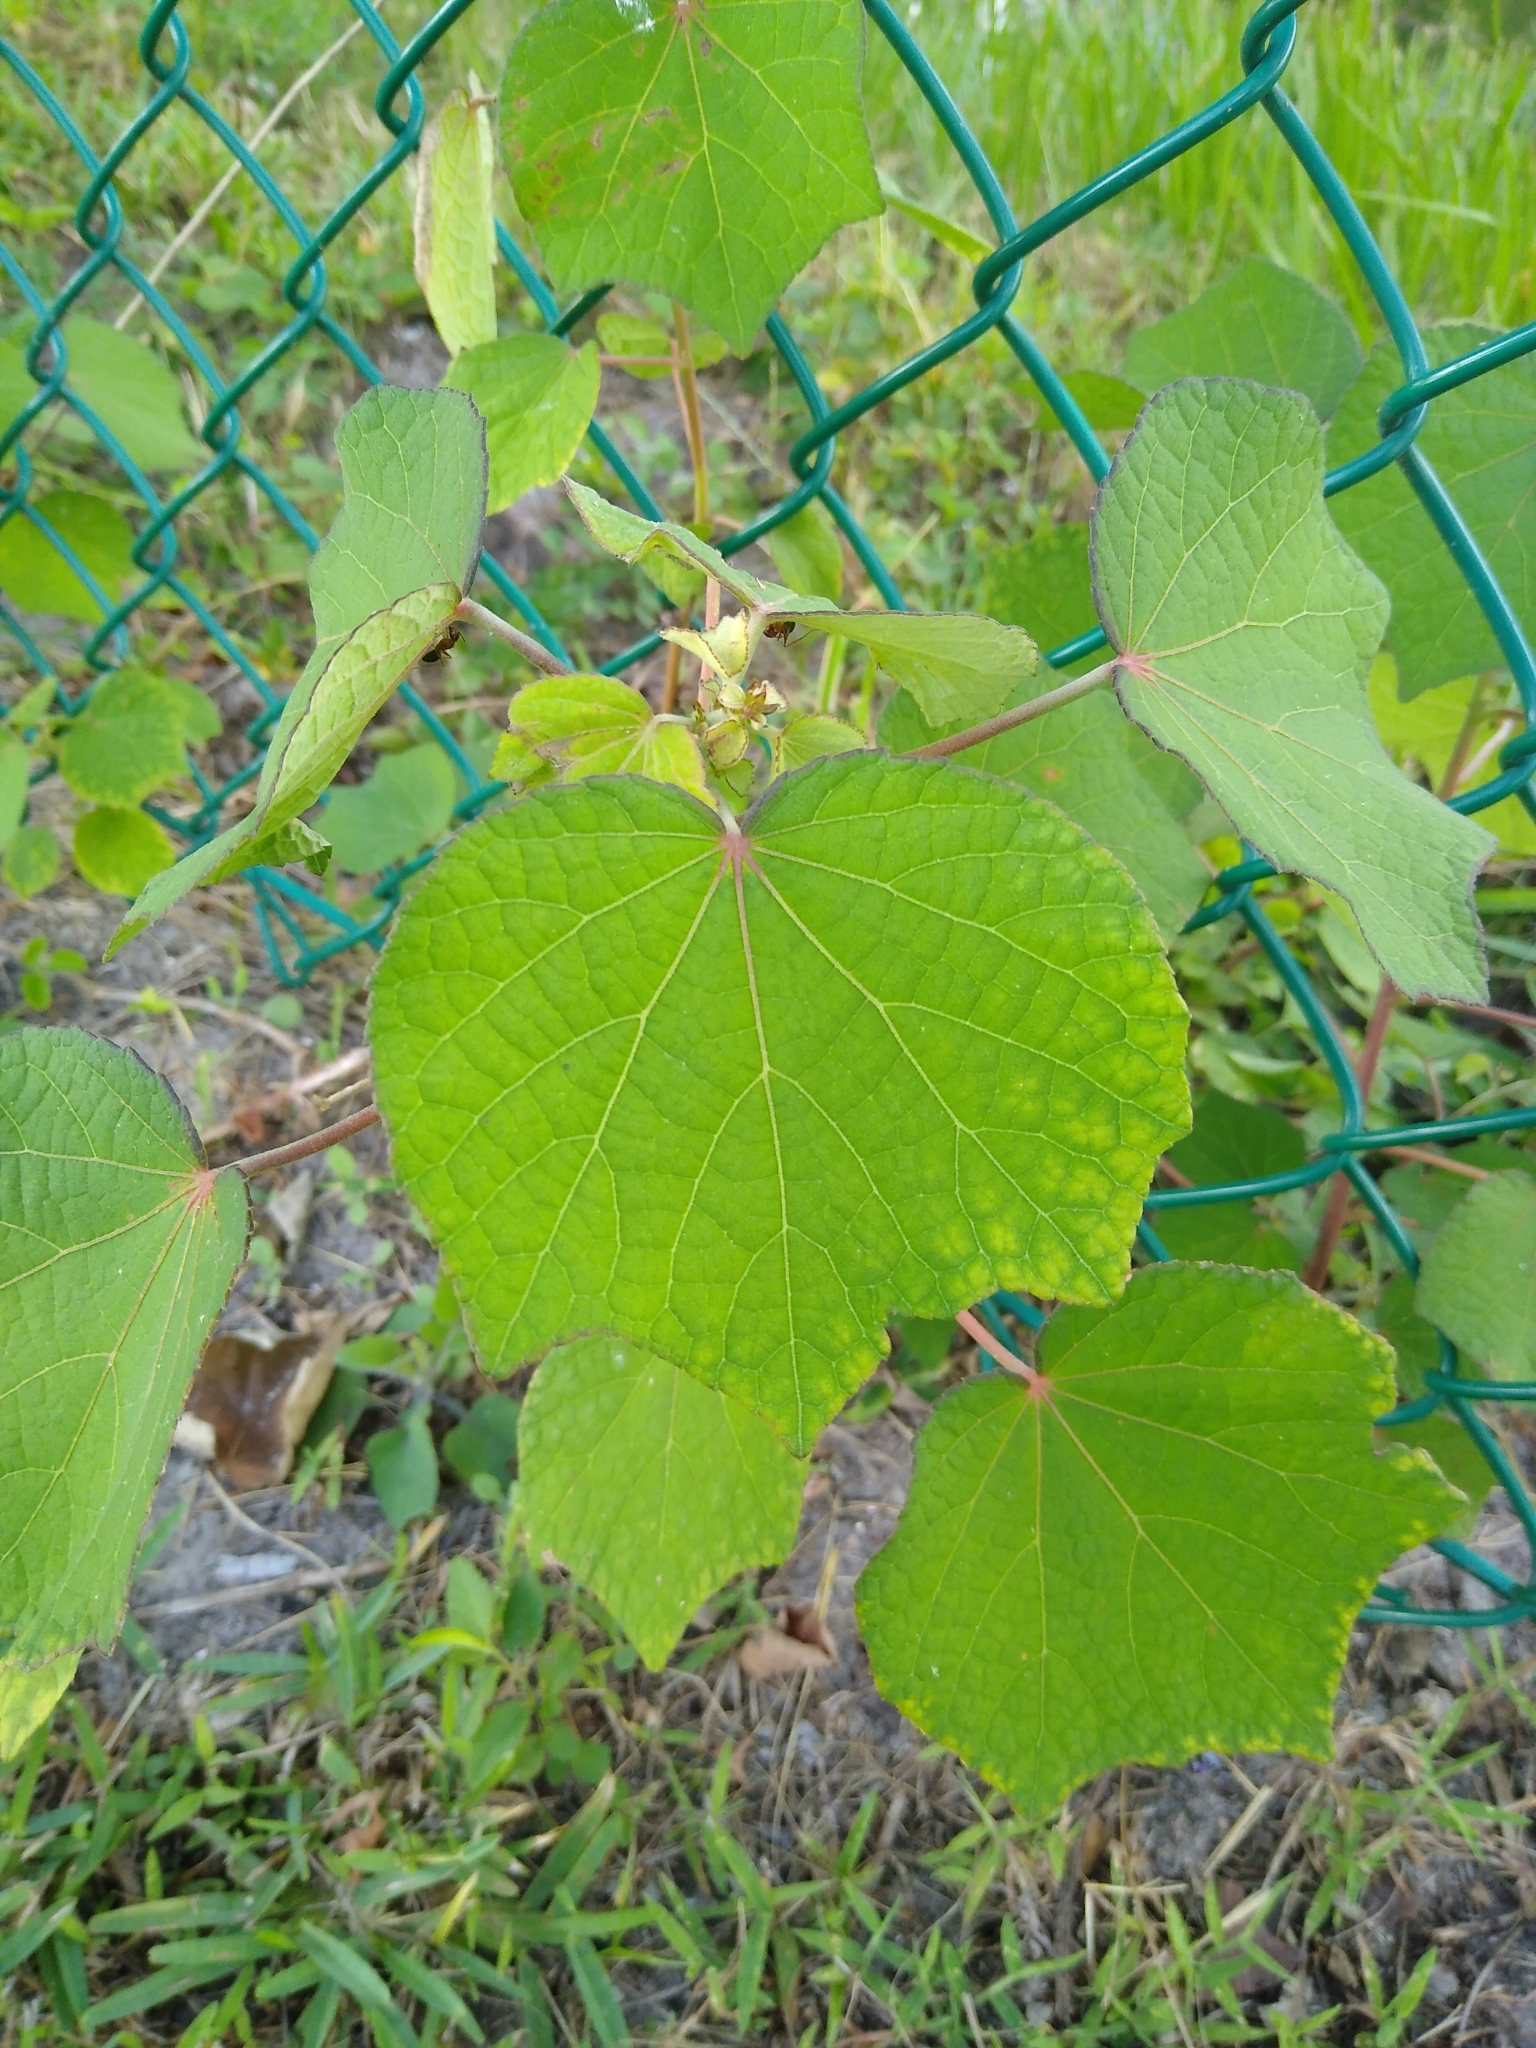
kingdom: Plantae
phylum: Tracheophyta
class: Magnoliopsida
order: Malvales
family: Malvaceae
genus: Urena
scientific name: Urena lobata
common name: Caesarweed
